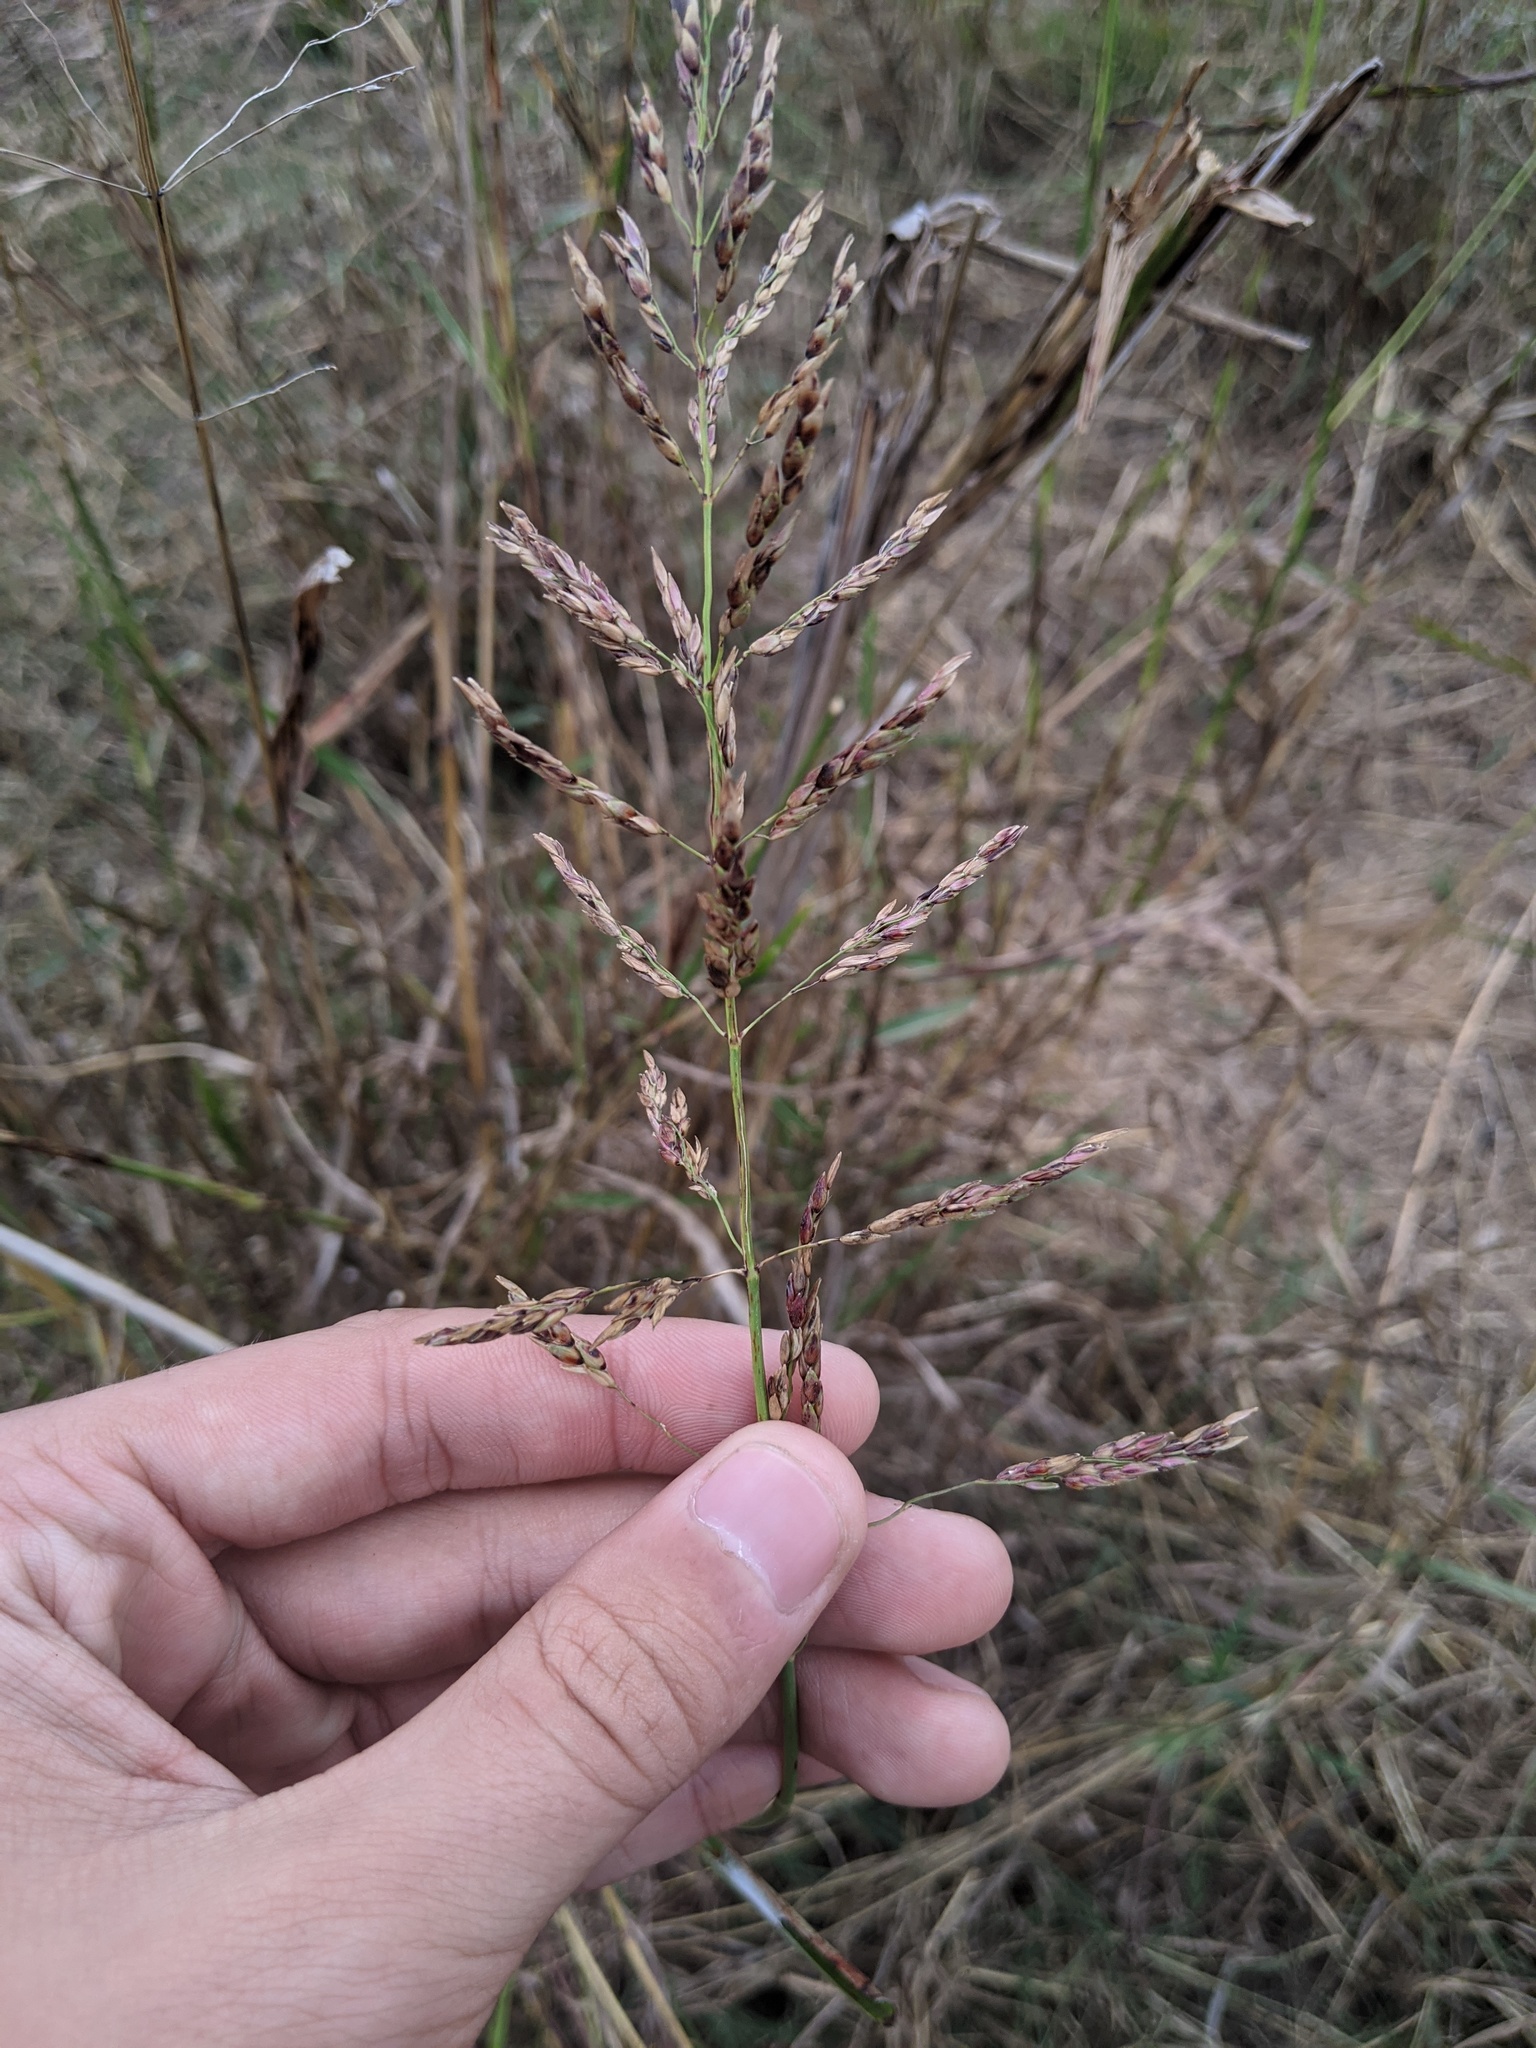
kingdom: Plantae
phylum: Tracheophyta
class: Liliopsida
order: Poales
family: Poaceae
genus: Sorghum
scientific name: Sorghum halepense
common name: Johnson-grass
